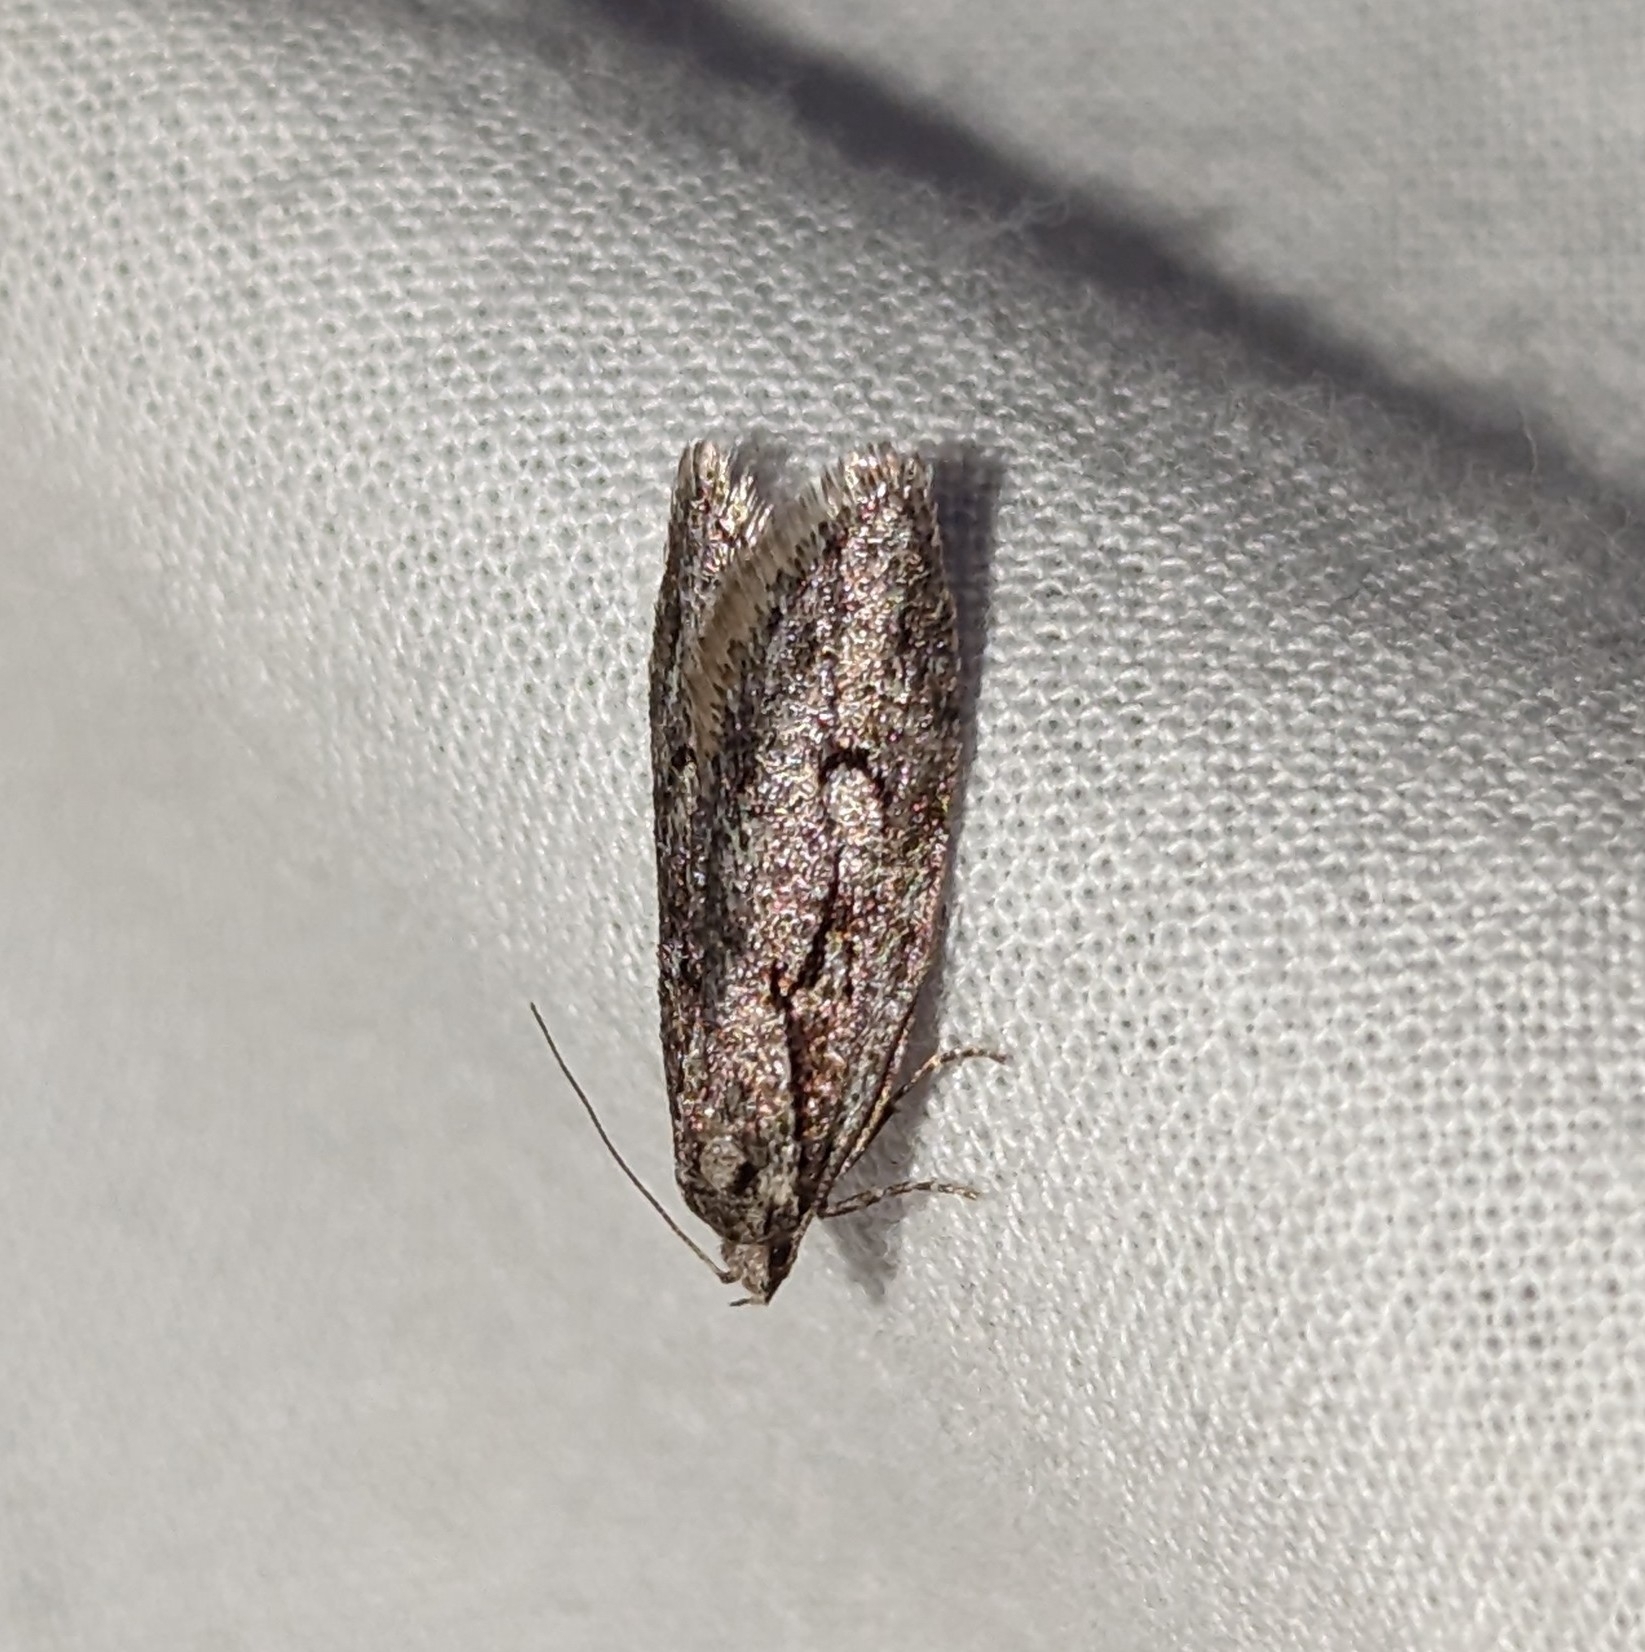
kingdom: Animalia
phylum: Arthropoda
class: Insecta
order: Lepidoptera
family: Depressariidae
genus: Semioscopis
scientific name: Semioscopis aurorella
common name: Aurora flatbody moth
